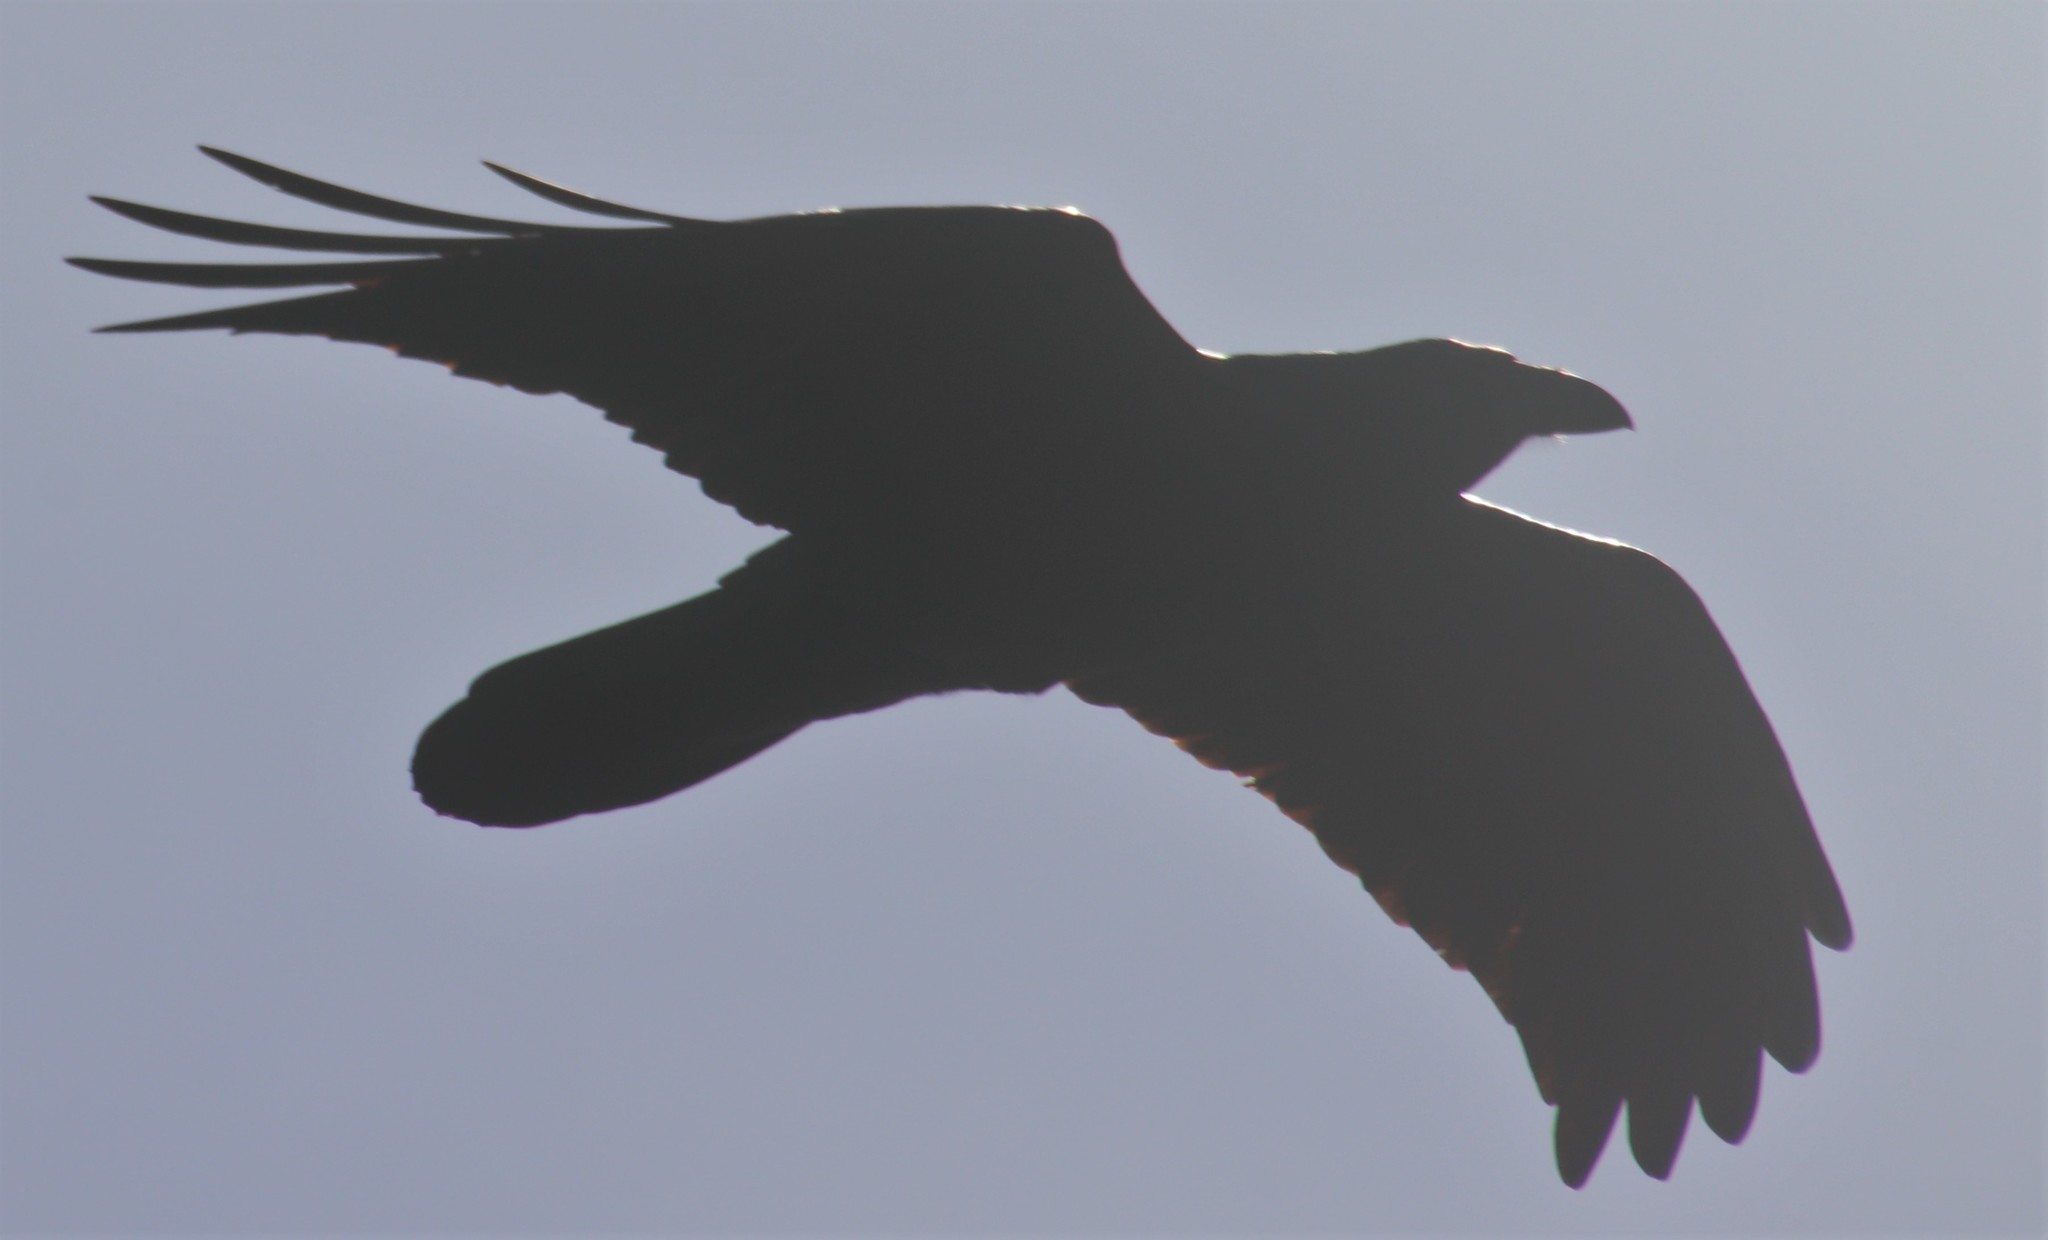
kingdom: Animalia
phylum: Chordata
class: Aves
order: Passeriformes
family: Corvidae
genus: Corvus
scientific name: Corvus corax
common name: Common raven
